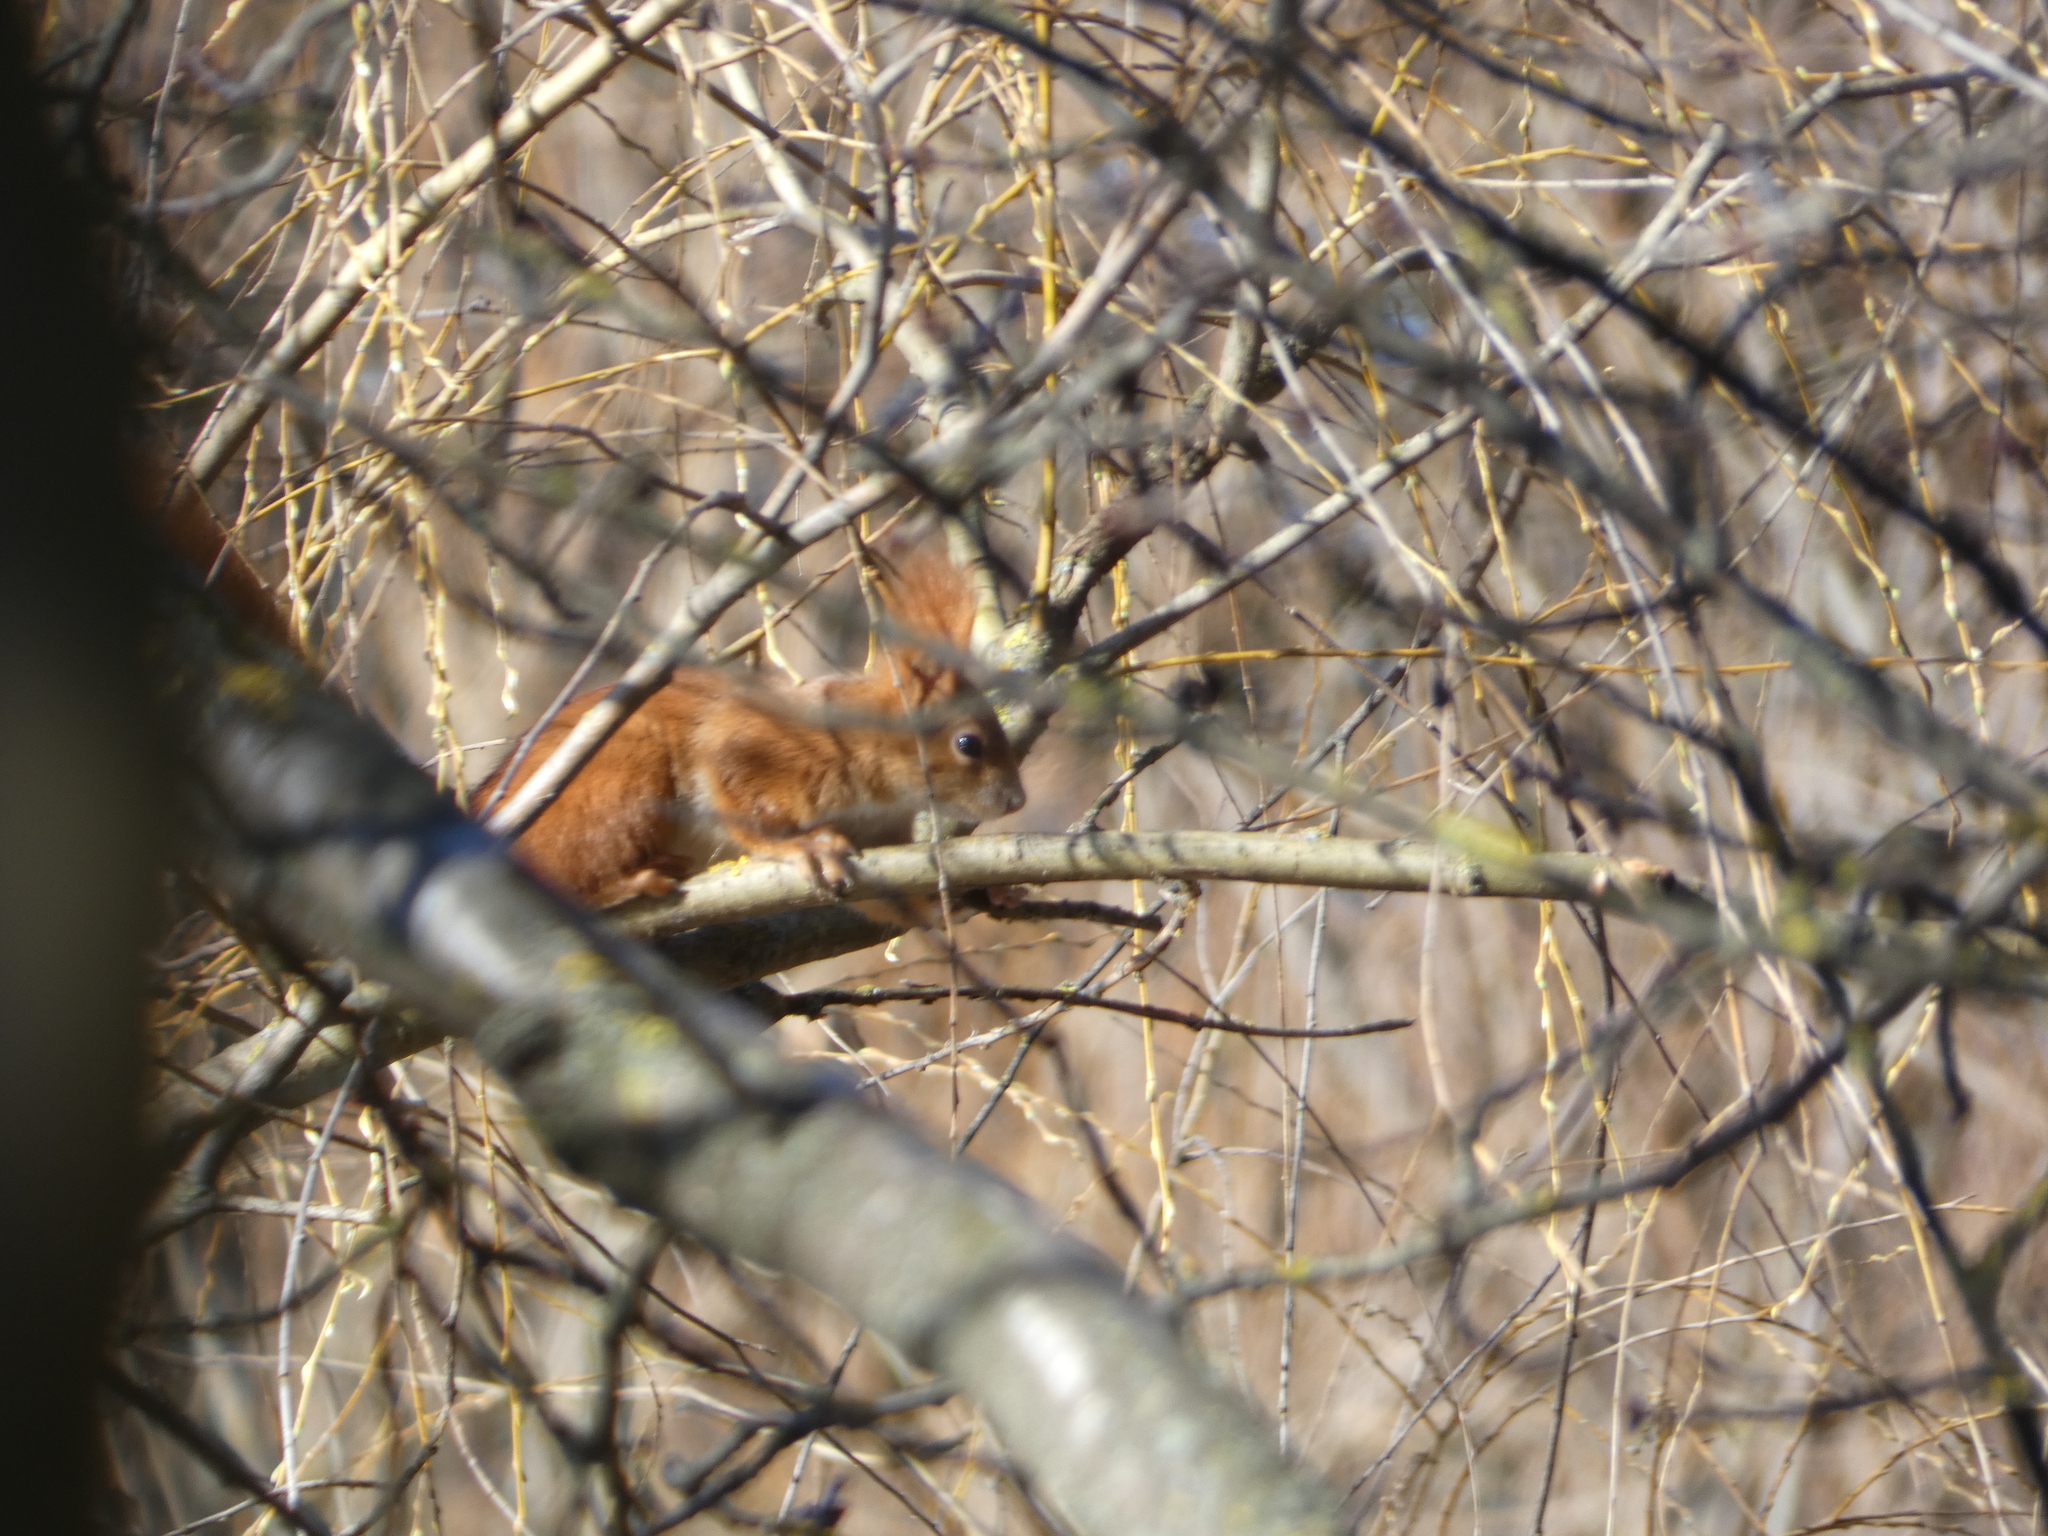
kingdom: Animalia
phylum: Chordata
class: Mammalia
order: Rodentia
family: Sciuridae
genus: Sciurus
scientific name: Sciurus vulgaris
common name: Eurasian red squirrel
